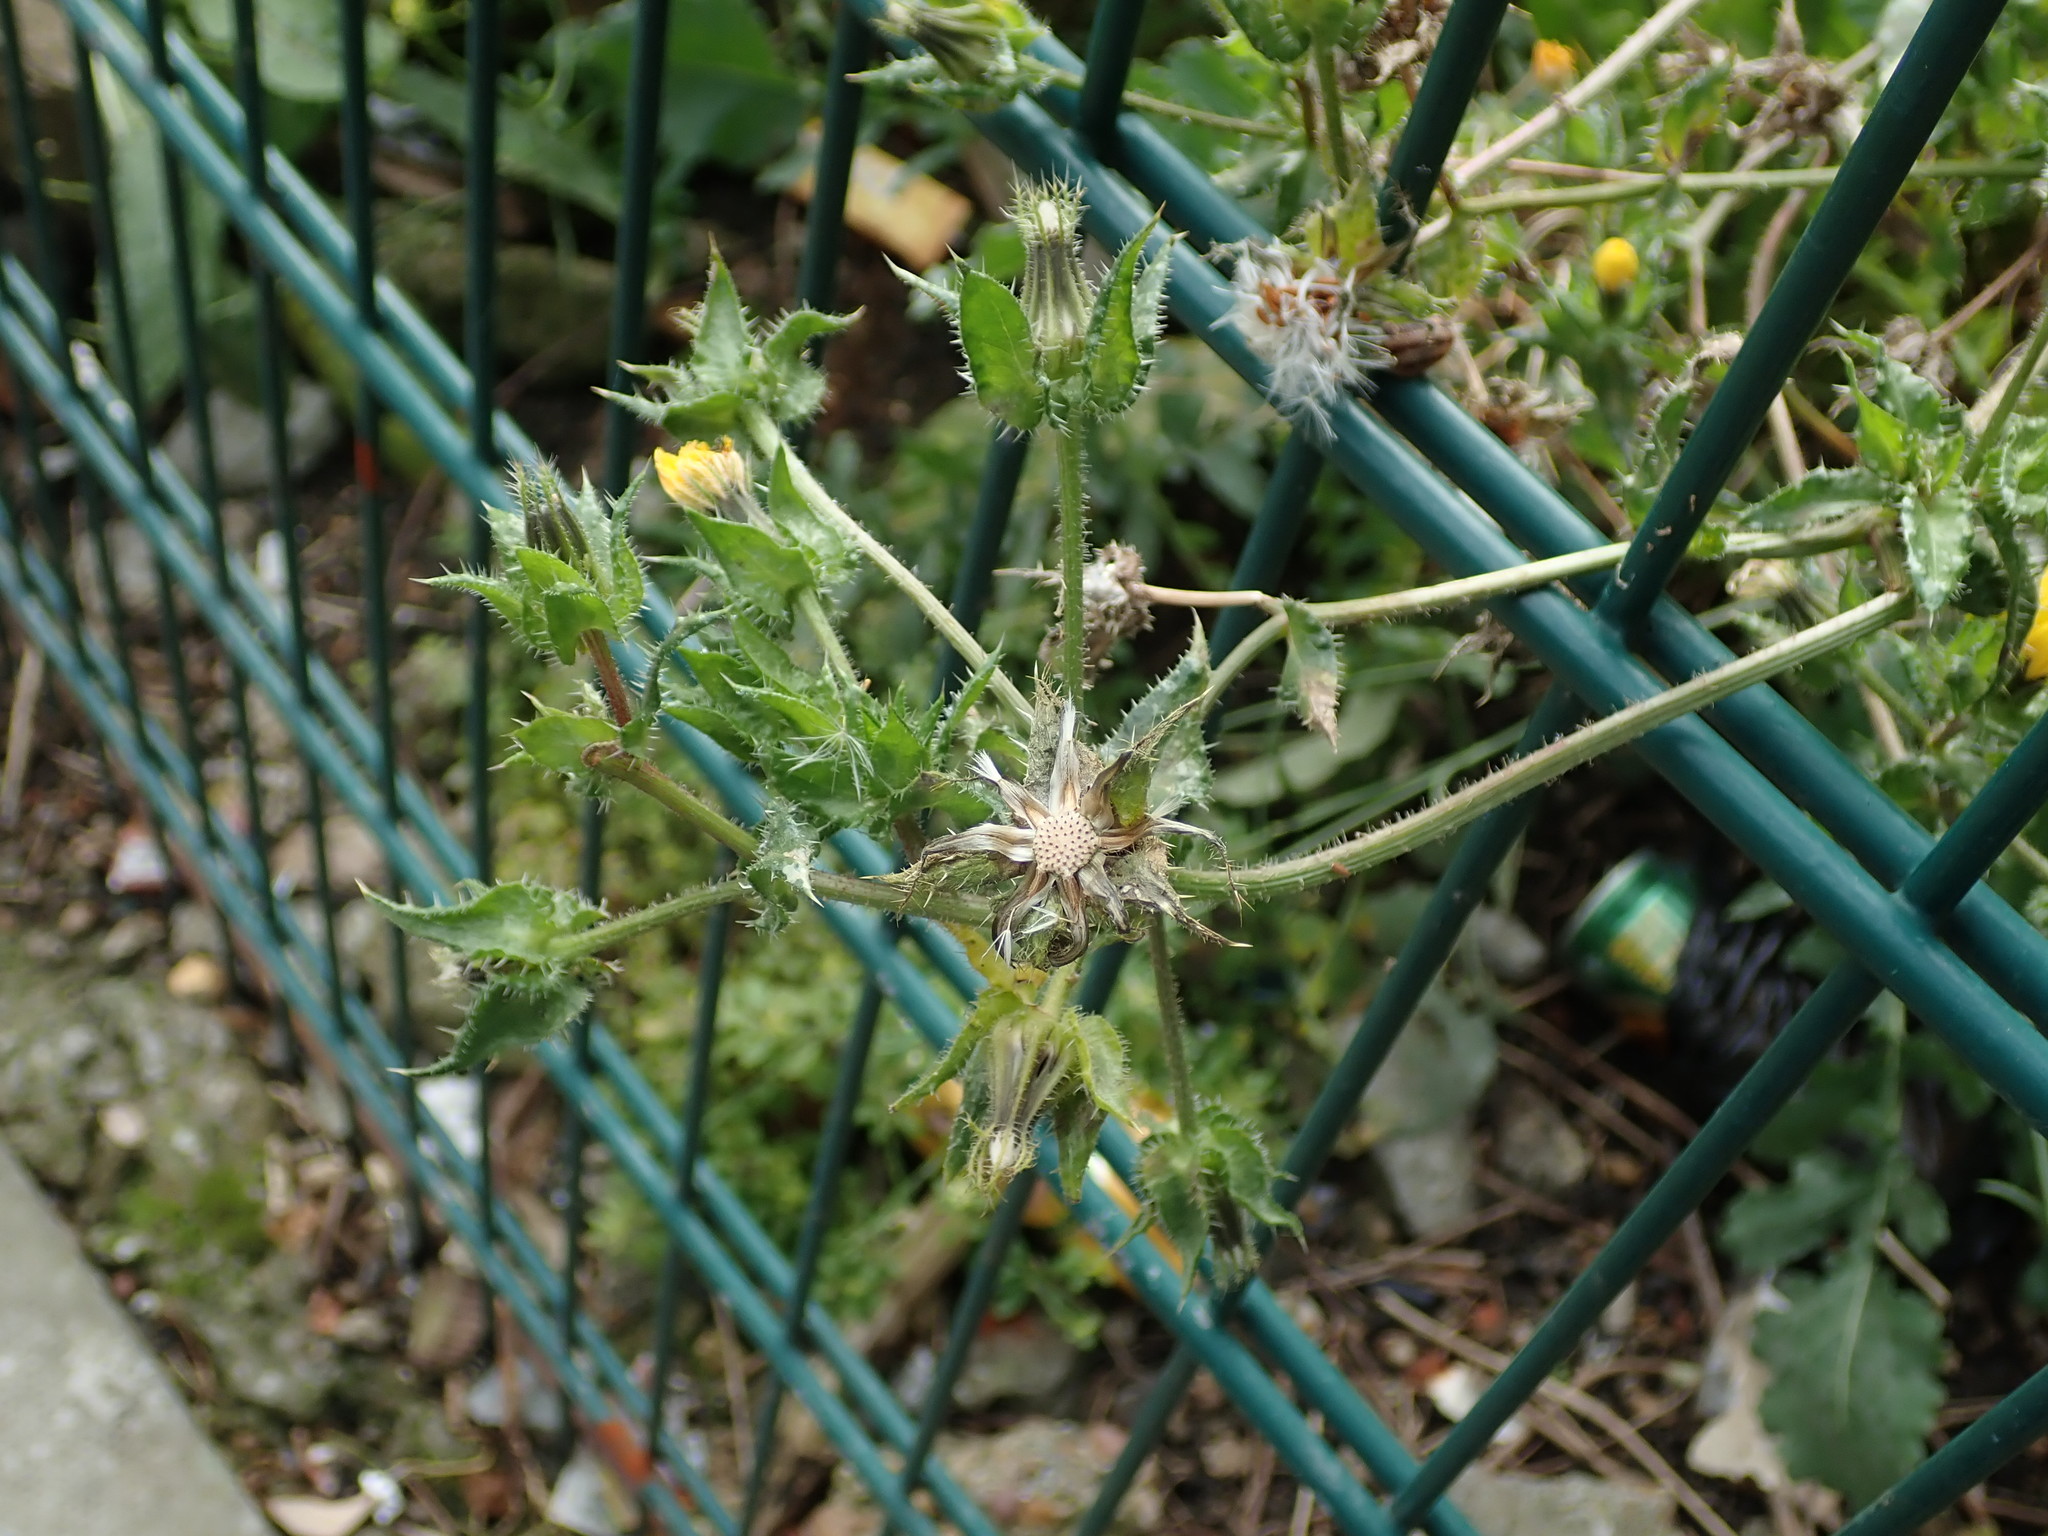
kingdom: Plantae
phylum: Tracheophyta
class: Magnoliopsida
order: Asterales
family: Asteraceae
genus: Helminthotheca
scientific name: Helminthotheca echioides
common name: Ox-tongue
